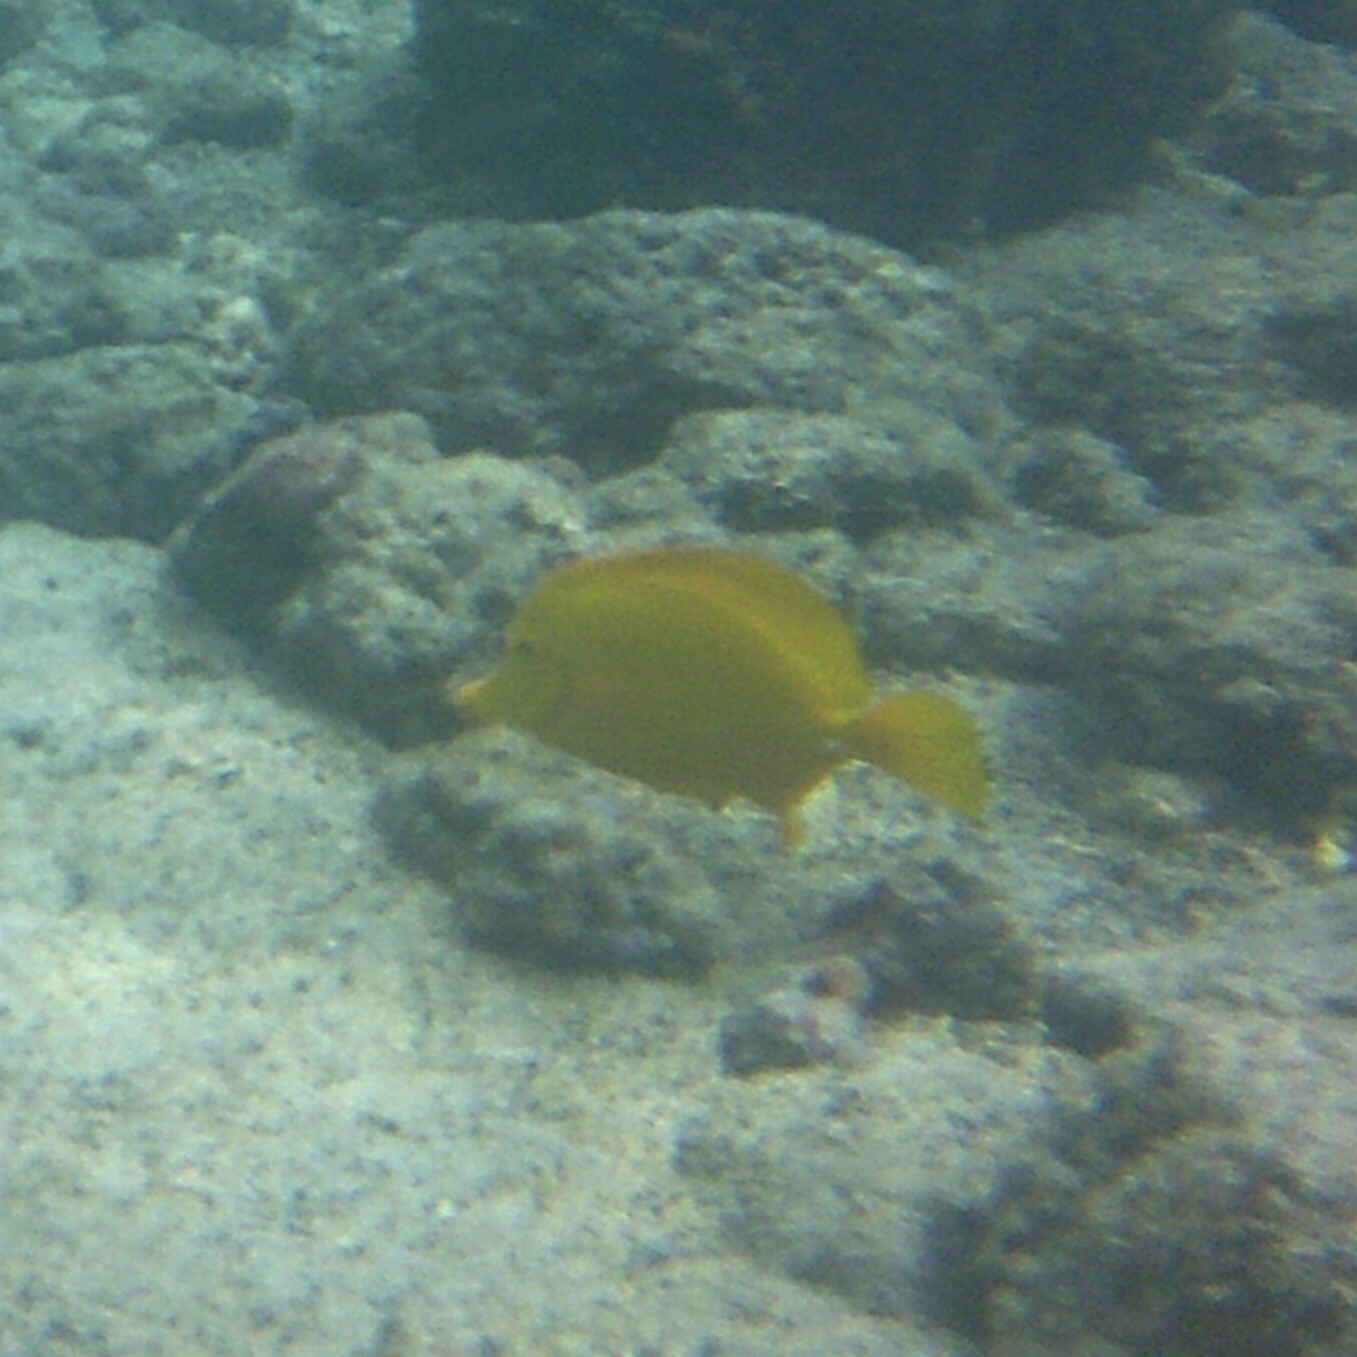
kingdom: Animalia
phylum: Chordata
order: Perciformes
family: Acanthuridae
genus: Zebrasoma
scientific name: Zebrasoma flavescens
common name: Yellow tang
